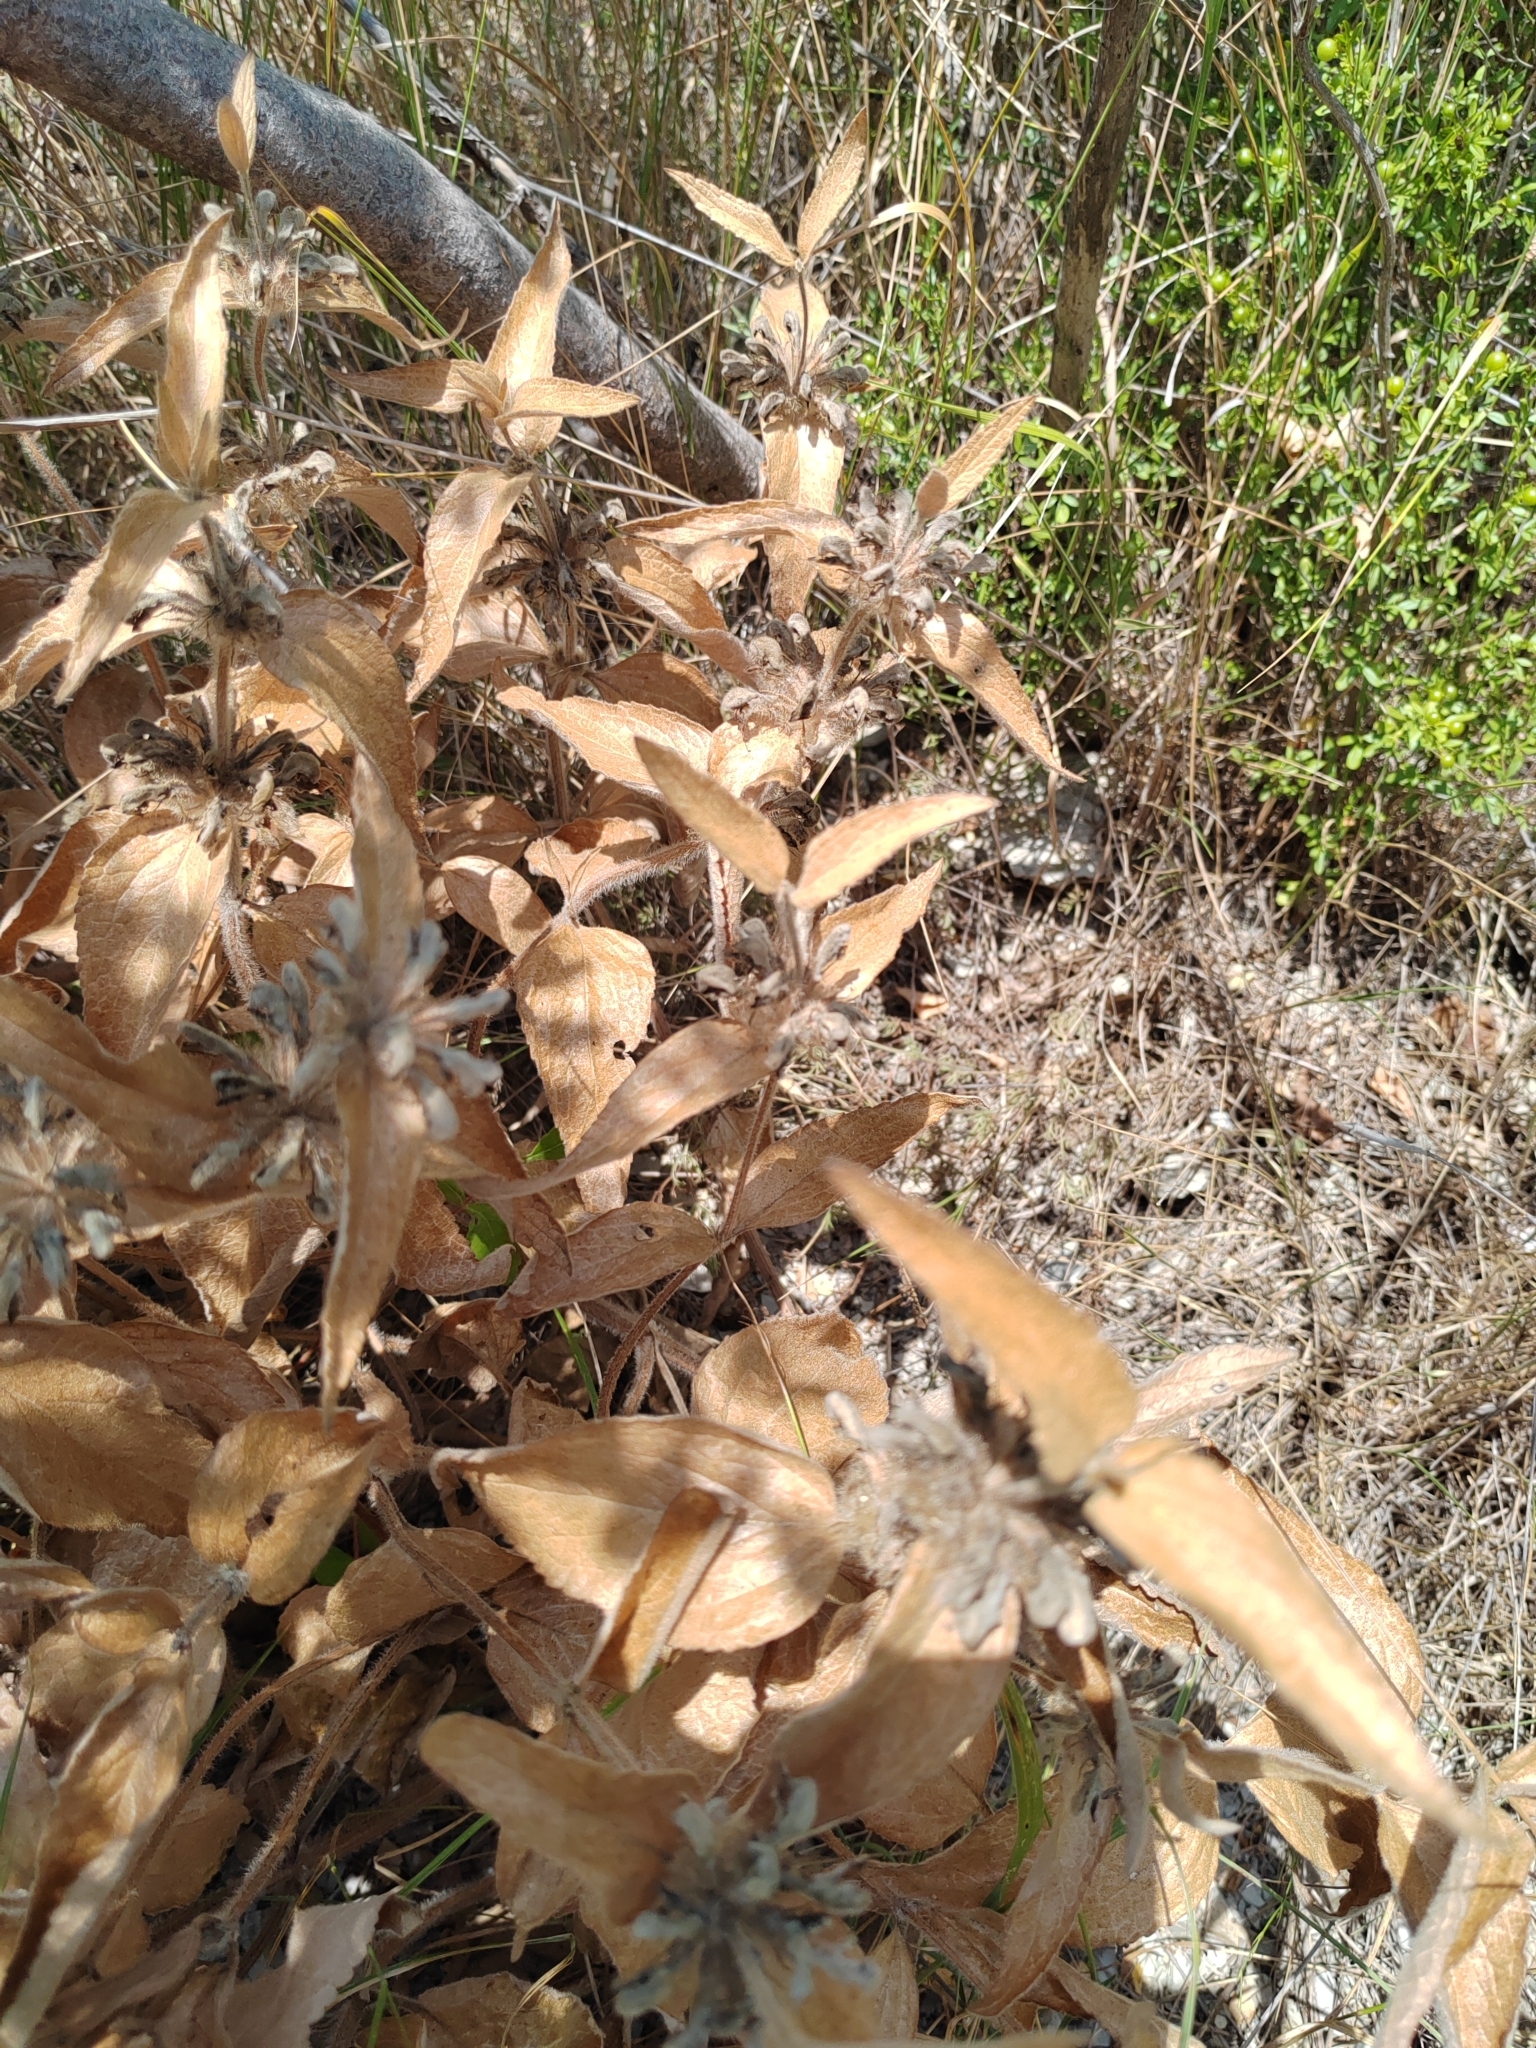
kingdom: Plantae
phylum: Tracheophyta
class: Magnoliopsida
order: Lamiales
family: Lamiaceae
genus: Phlomis
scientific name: Phlomis herba-venti
